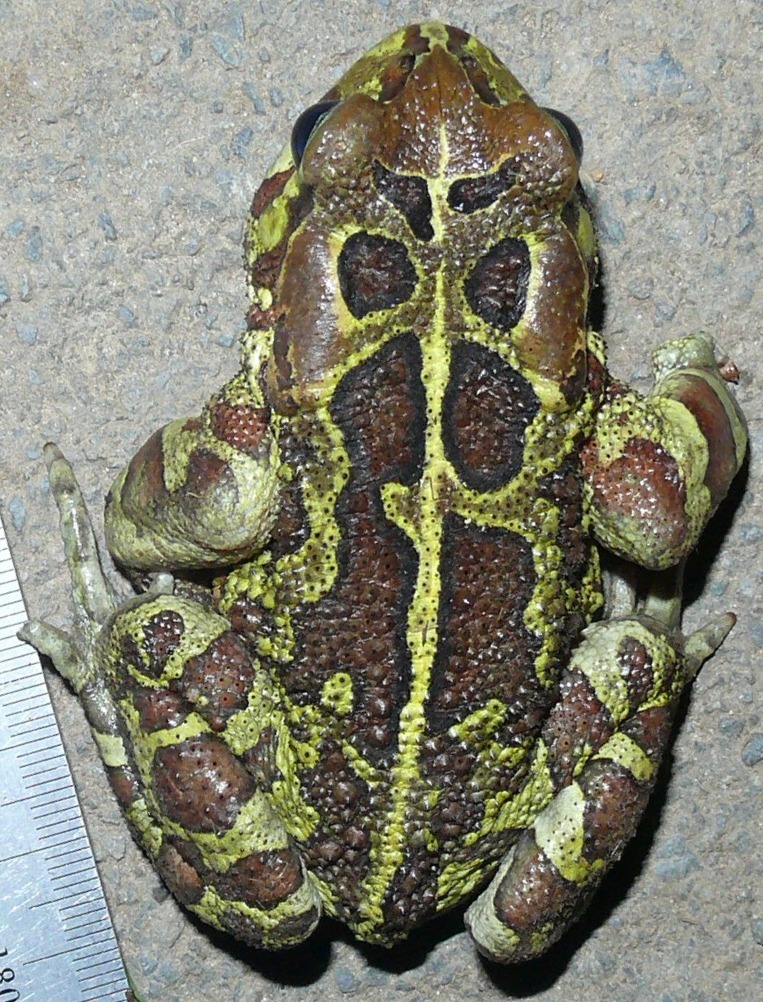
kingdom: Animalia
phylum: Chordata
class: Amphibia
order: Anura
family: Bufonidae
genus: Sclerophrys
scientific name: Sclerophrys pantherina
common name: Panther toad
